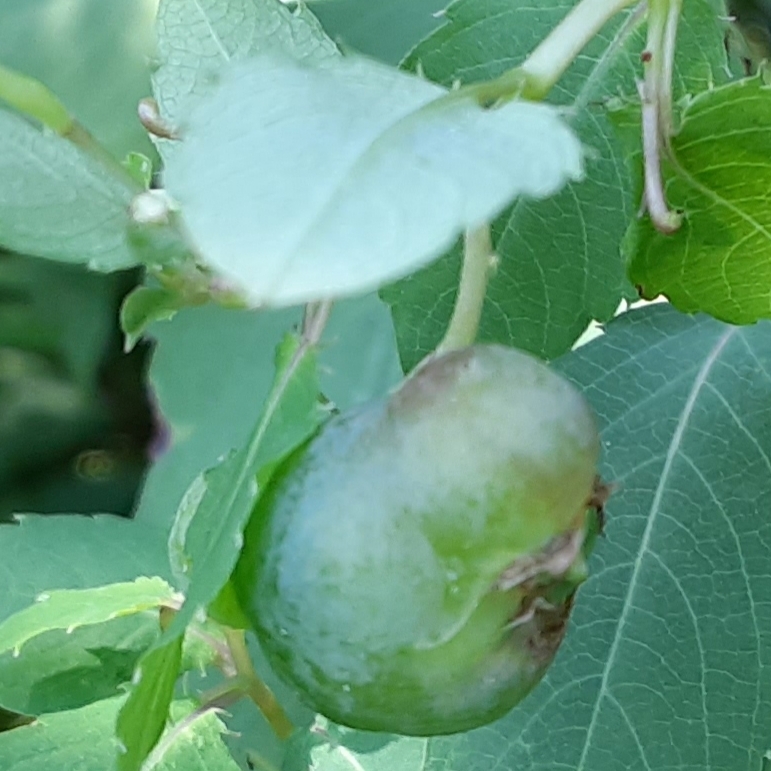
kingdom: Animalia
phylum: Arthropoda
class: Insecta
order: Diptera
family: Cecidomyiidae
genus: Schizomyia
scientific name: Schizomyia impatientis
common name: Jewelweed gall midge
